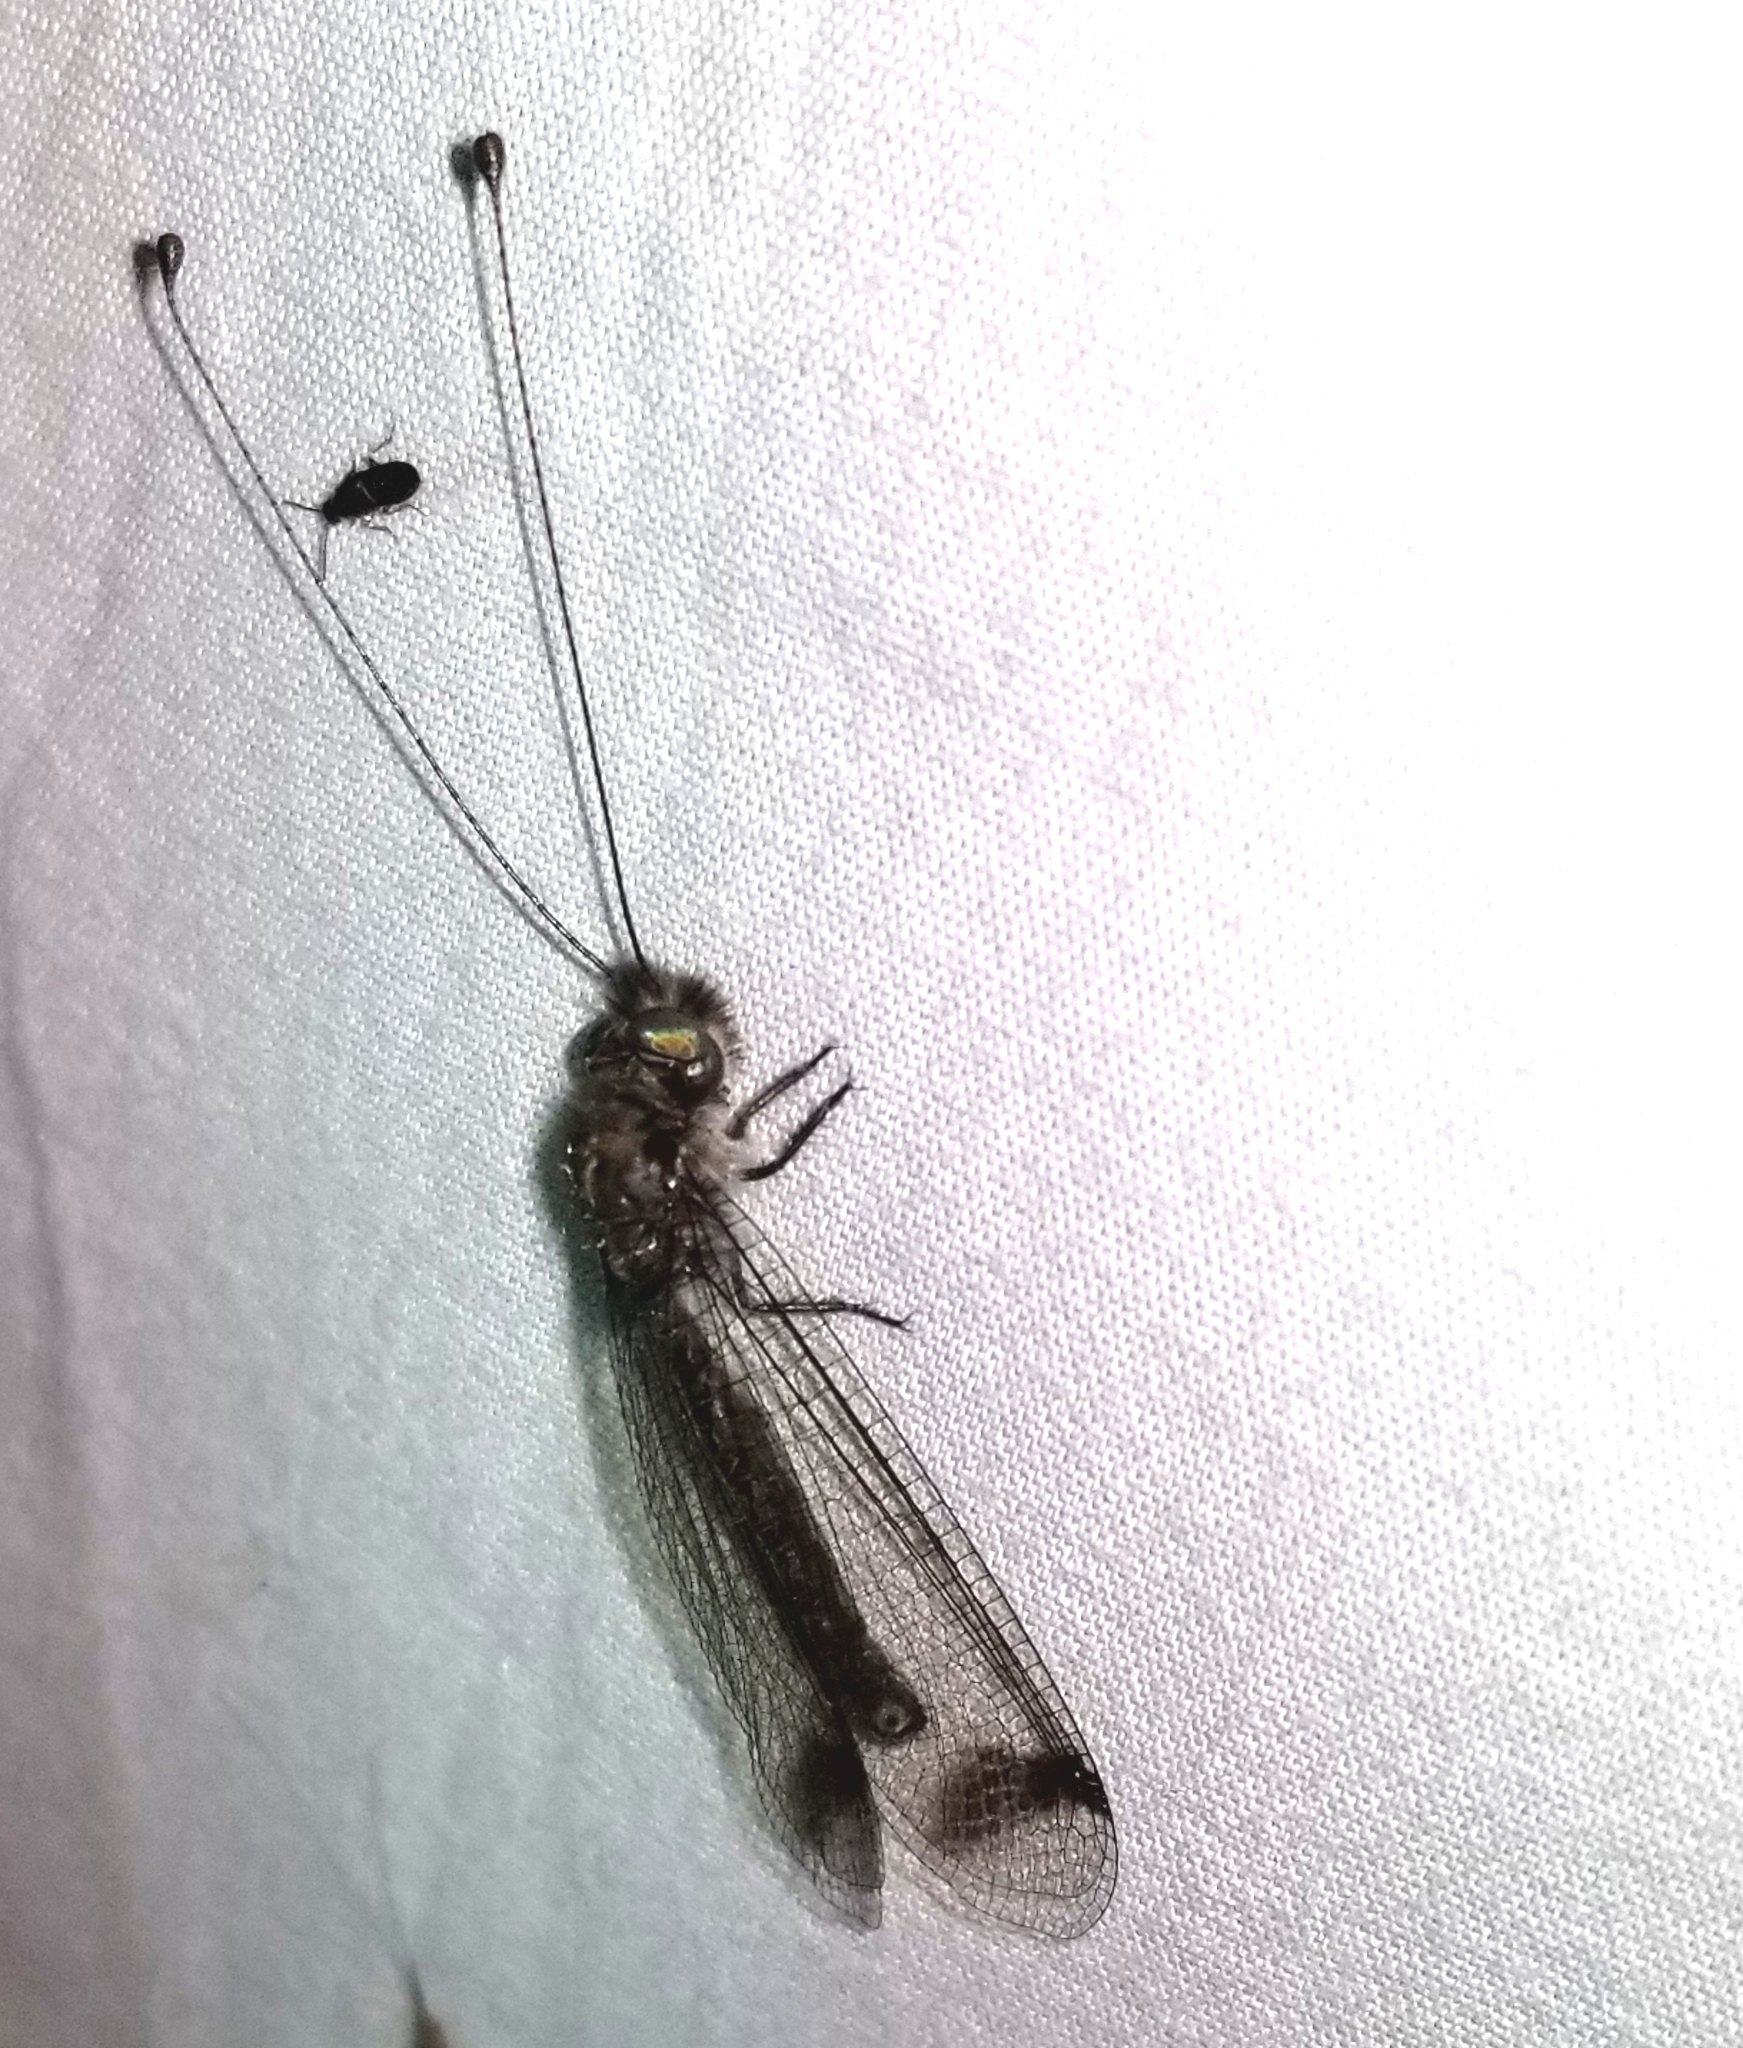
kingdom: Animalia
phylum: Arthropoda
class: Insecta
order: Neuroptera
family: Ascalaphidae
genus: Ululodes
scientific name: Ululodes macleayanus
